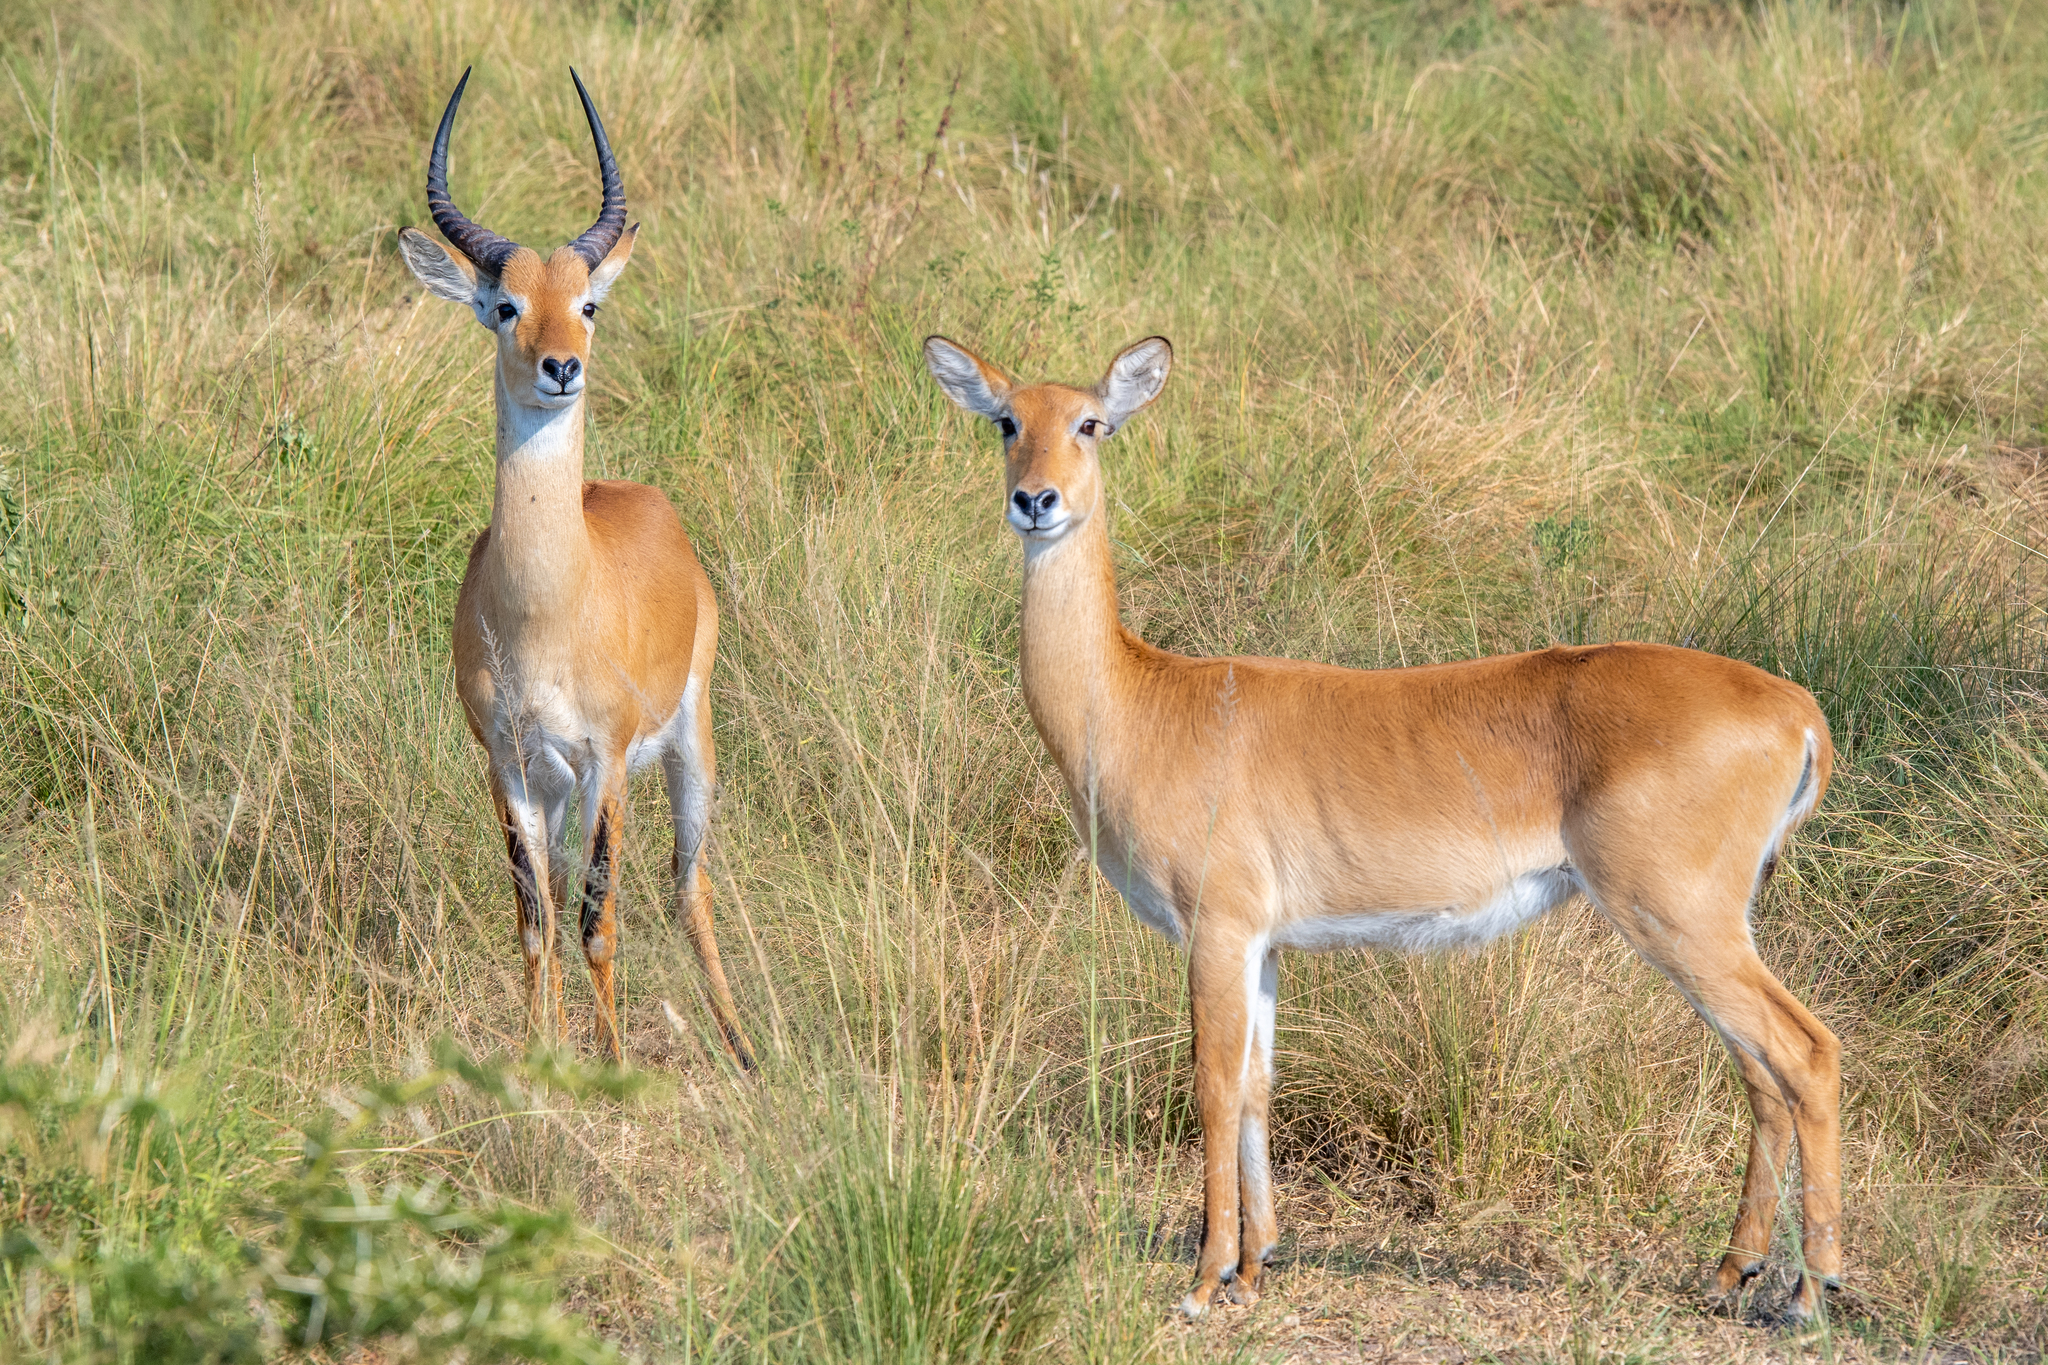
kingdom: Animalia
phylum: Chordata
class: Mammalia
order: Artiodactyla
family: Bovidae
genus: Kobus
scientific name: Kobus kob
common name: Kob
